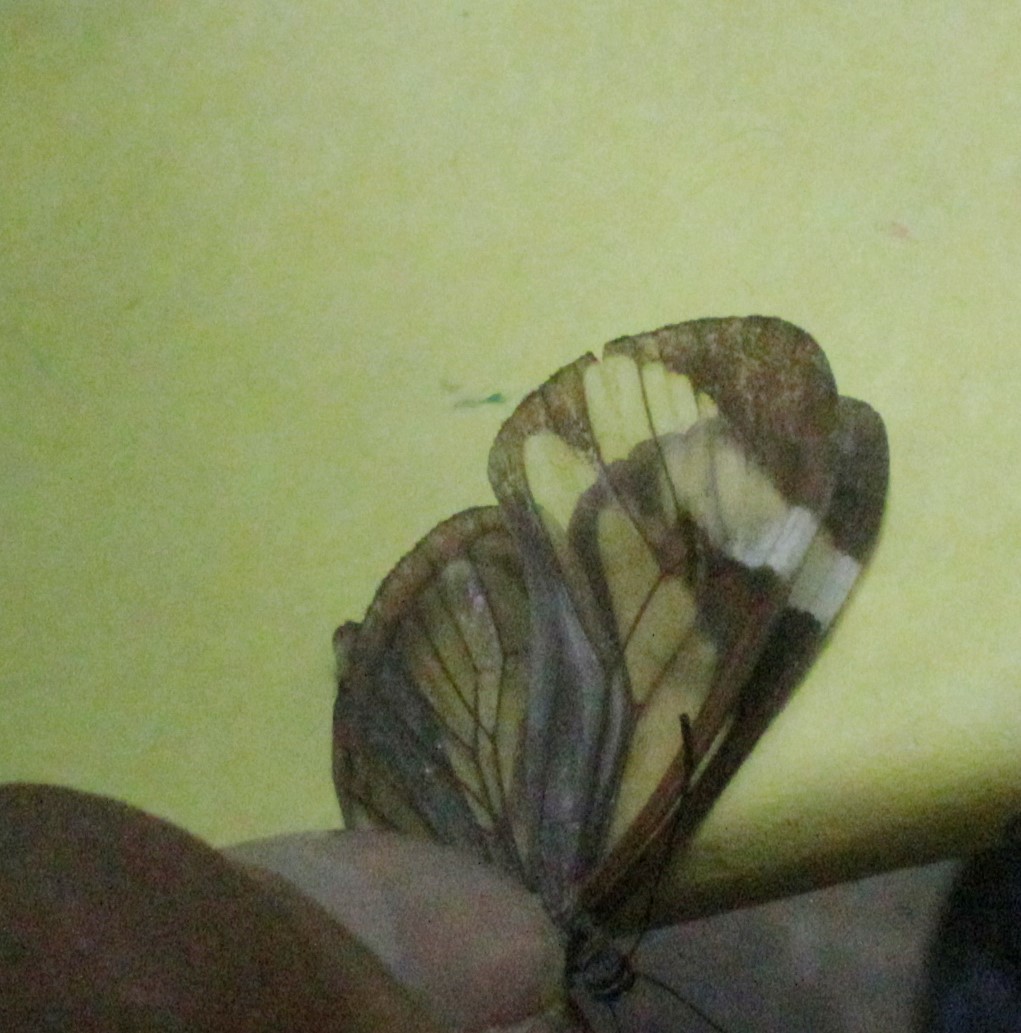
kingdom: Animalia
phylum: Arthropoda
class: Insecta
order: Lepidoptera
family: Nymphalidae
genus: Ithomia
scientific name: Ithomia patilla
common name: Patilla clearwing
